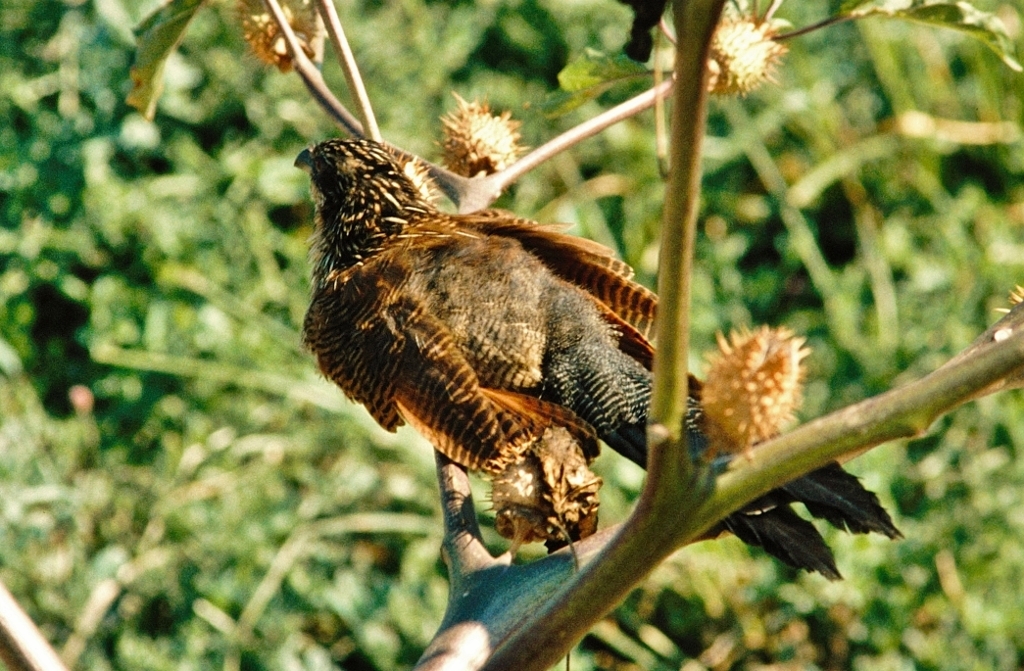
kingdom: Animalia
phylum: Chordata
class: Aves
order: Cuculiformes
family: Cuculidae
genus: Centropus
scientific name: Centropus superciliosus
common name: White-browed coucal
